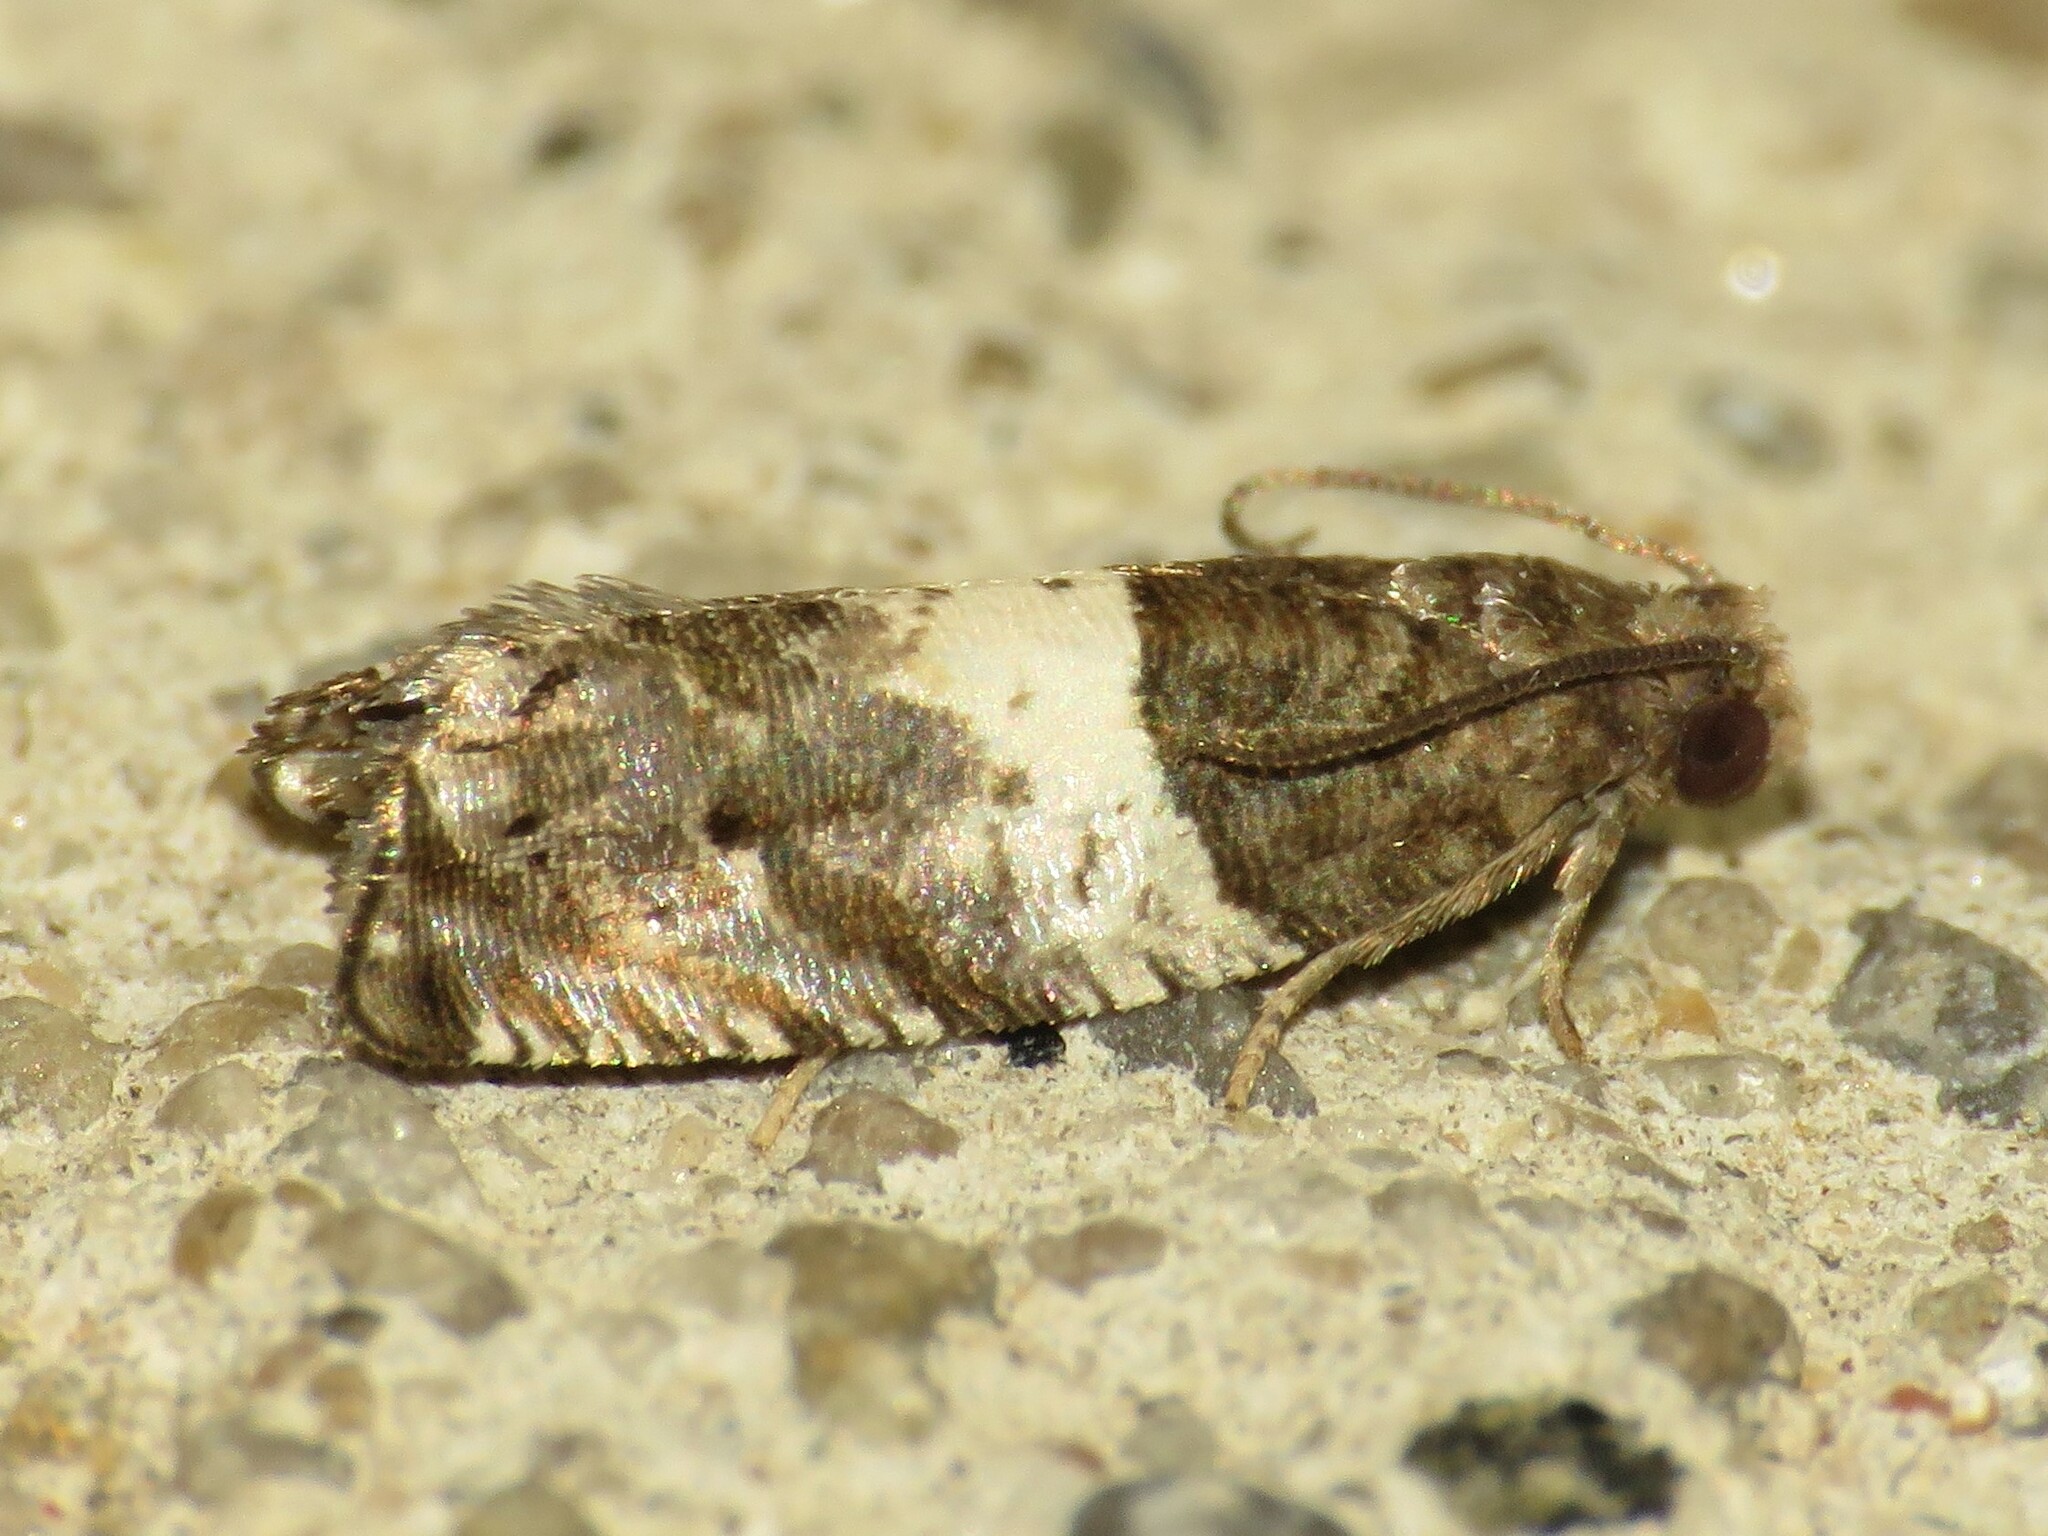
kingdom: Animalia
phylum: Arthropoda
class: Insecta
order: Lepidoptera
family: Tortricidae
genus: Gypsonoma
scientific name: Gypsonoma substitutionis
